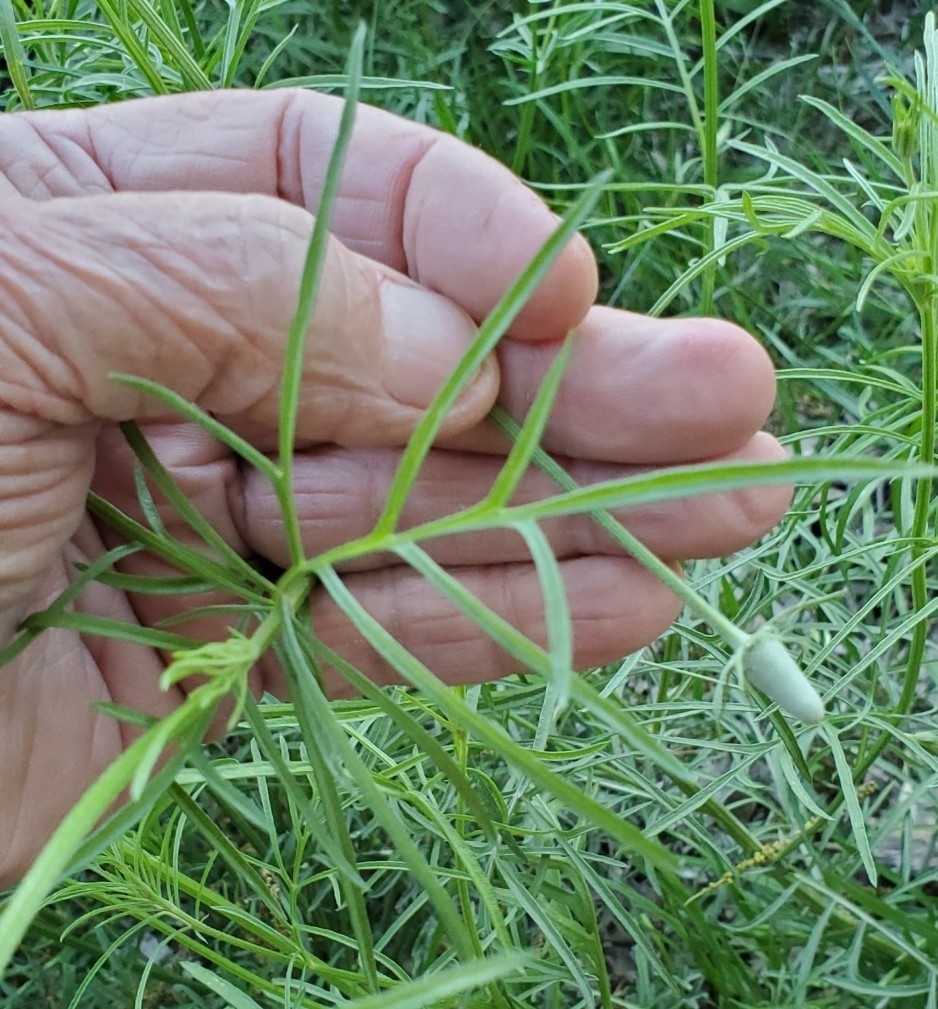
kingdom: Plantae
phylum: Tracheophyta
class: Magnoliopsida
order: Asterales
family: Asteraceae
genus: Ratibida
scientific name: Ratibida columnifera
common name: Prairie coneflower
